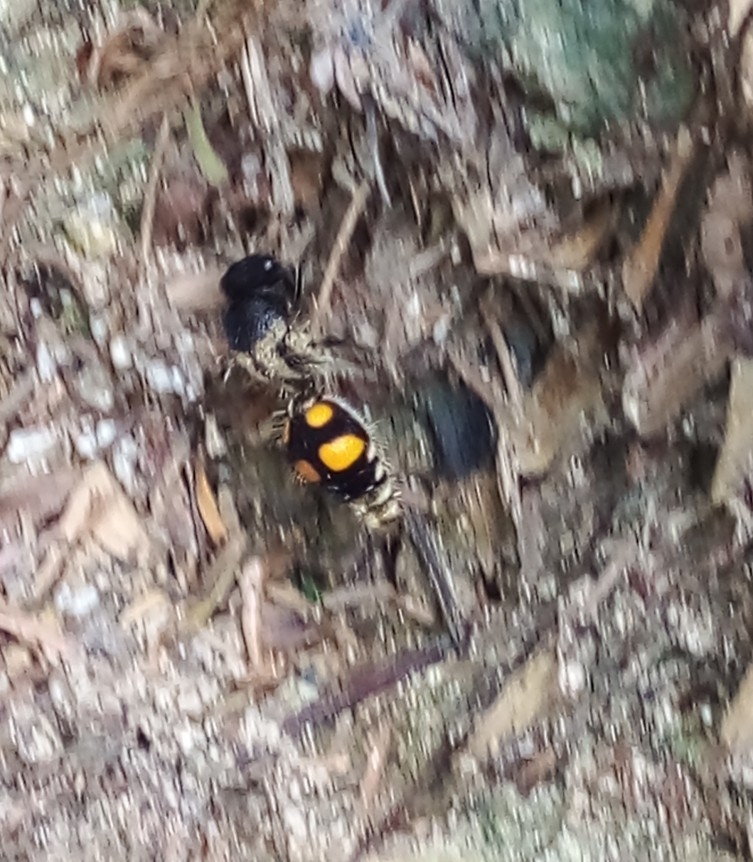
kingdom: Animalia
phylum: Arthropoda
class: Insecta
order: Hymenoptera
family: Mutillidae
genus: Traumatomutilla
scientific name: Traumatomutilla inermis
